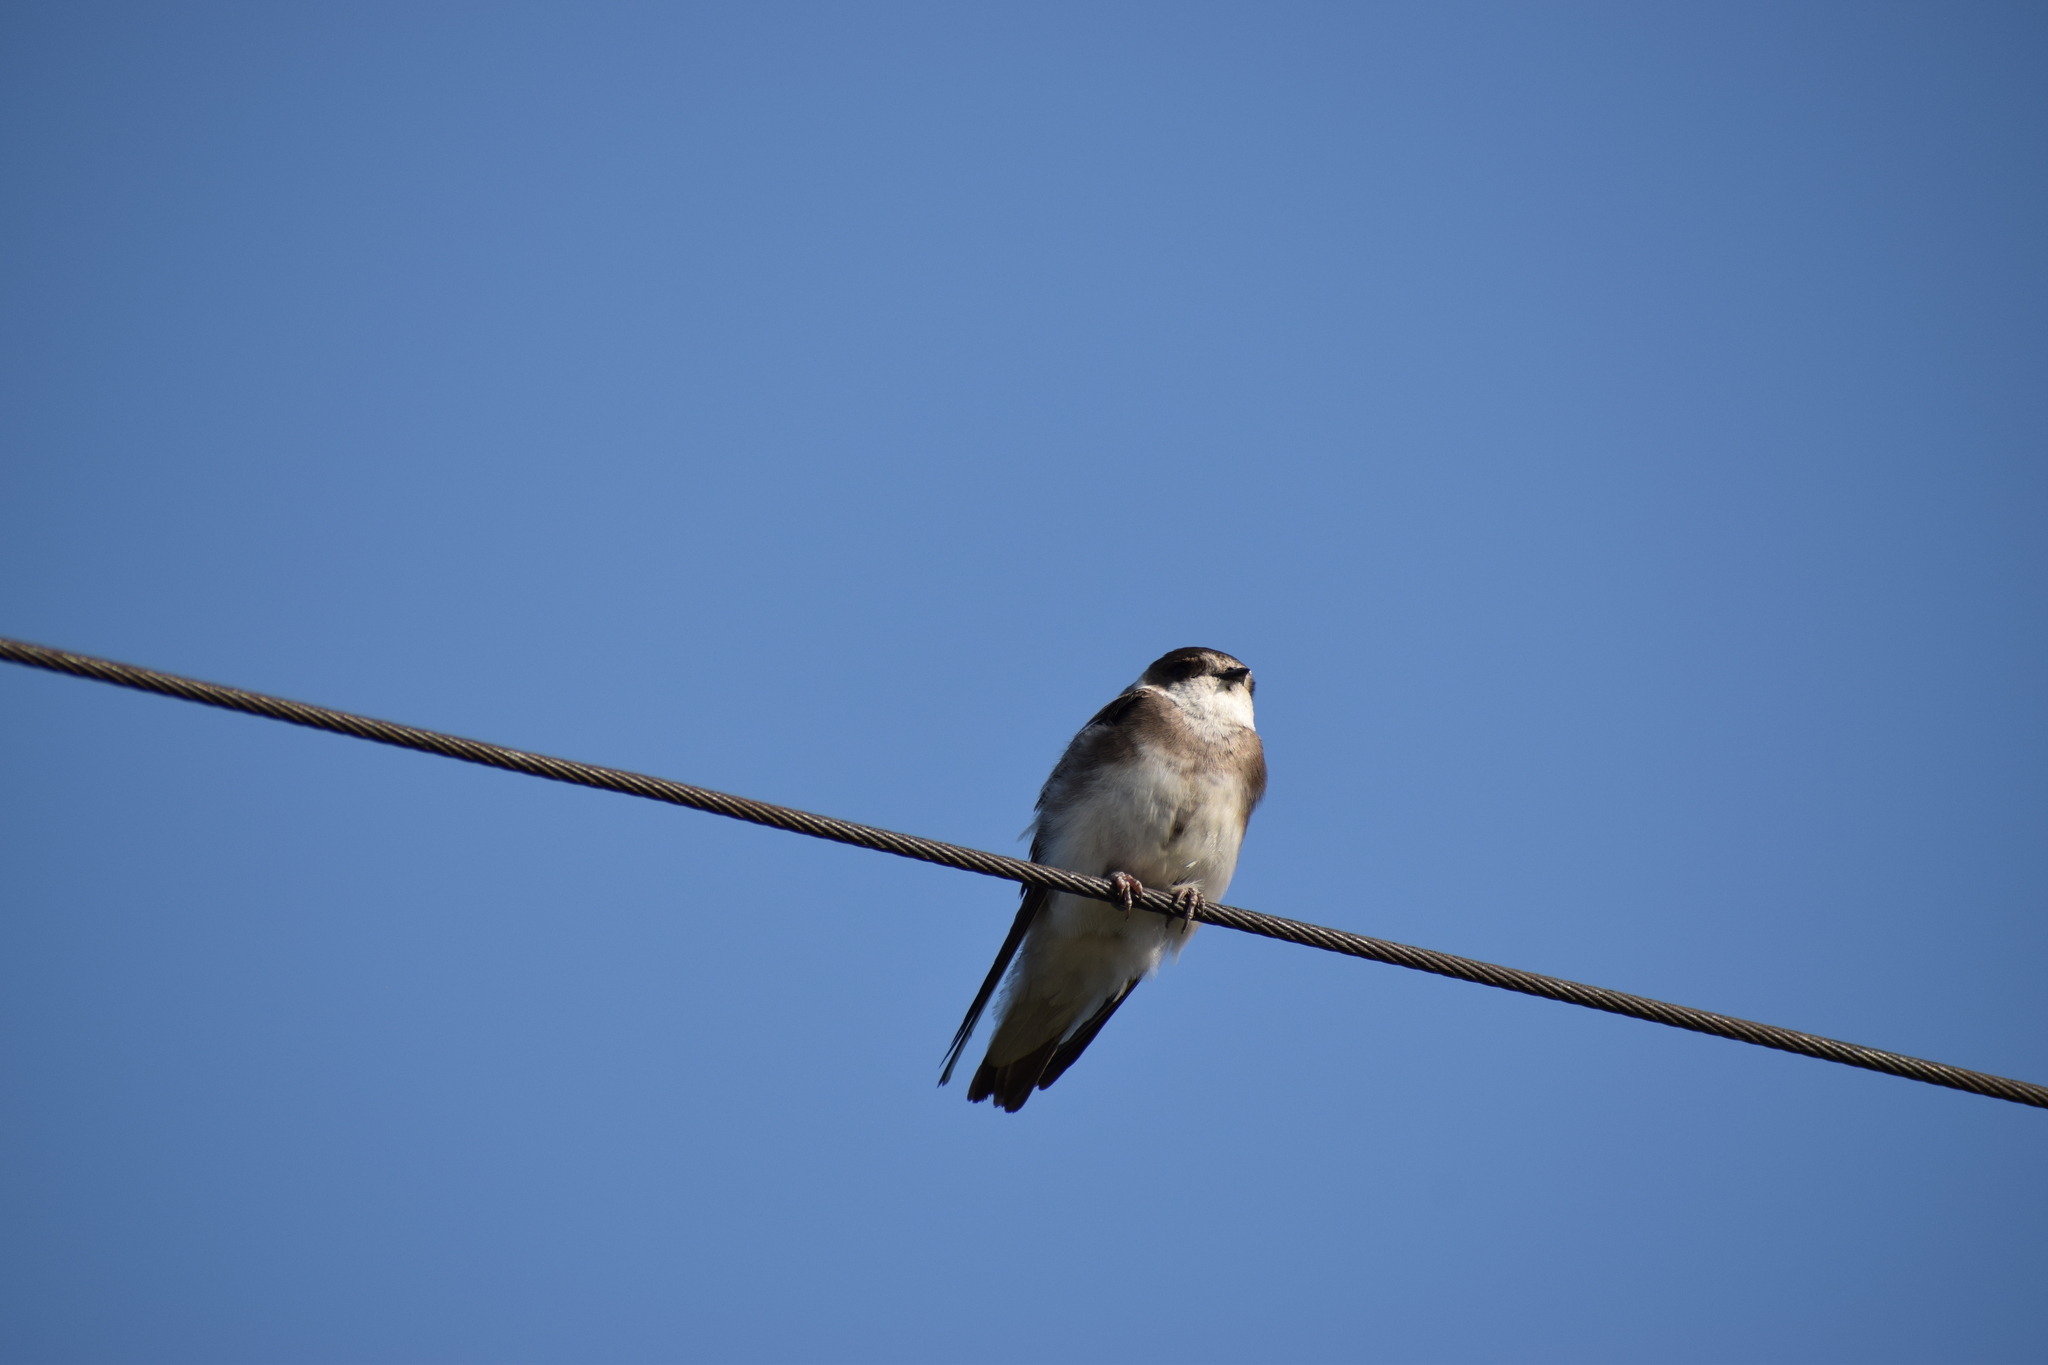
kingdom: Animalia
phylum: Chordata
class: Aves
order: Passeriformes
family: Hirundinidae
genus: Riparia
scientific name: Riparia riparia
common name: Sand martin
